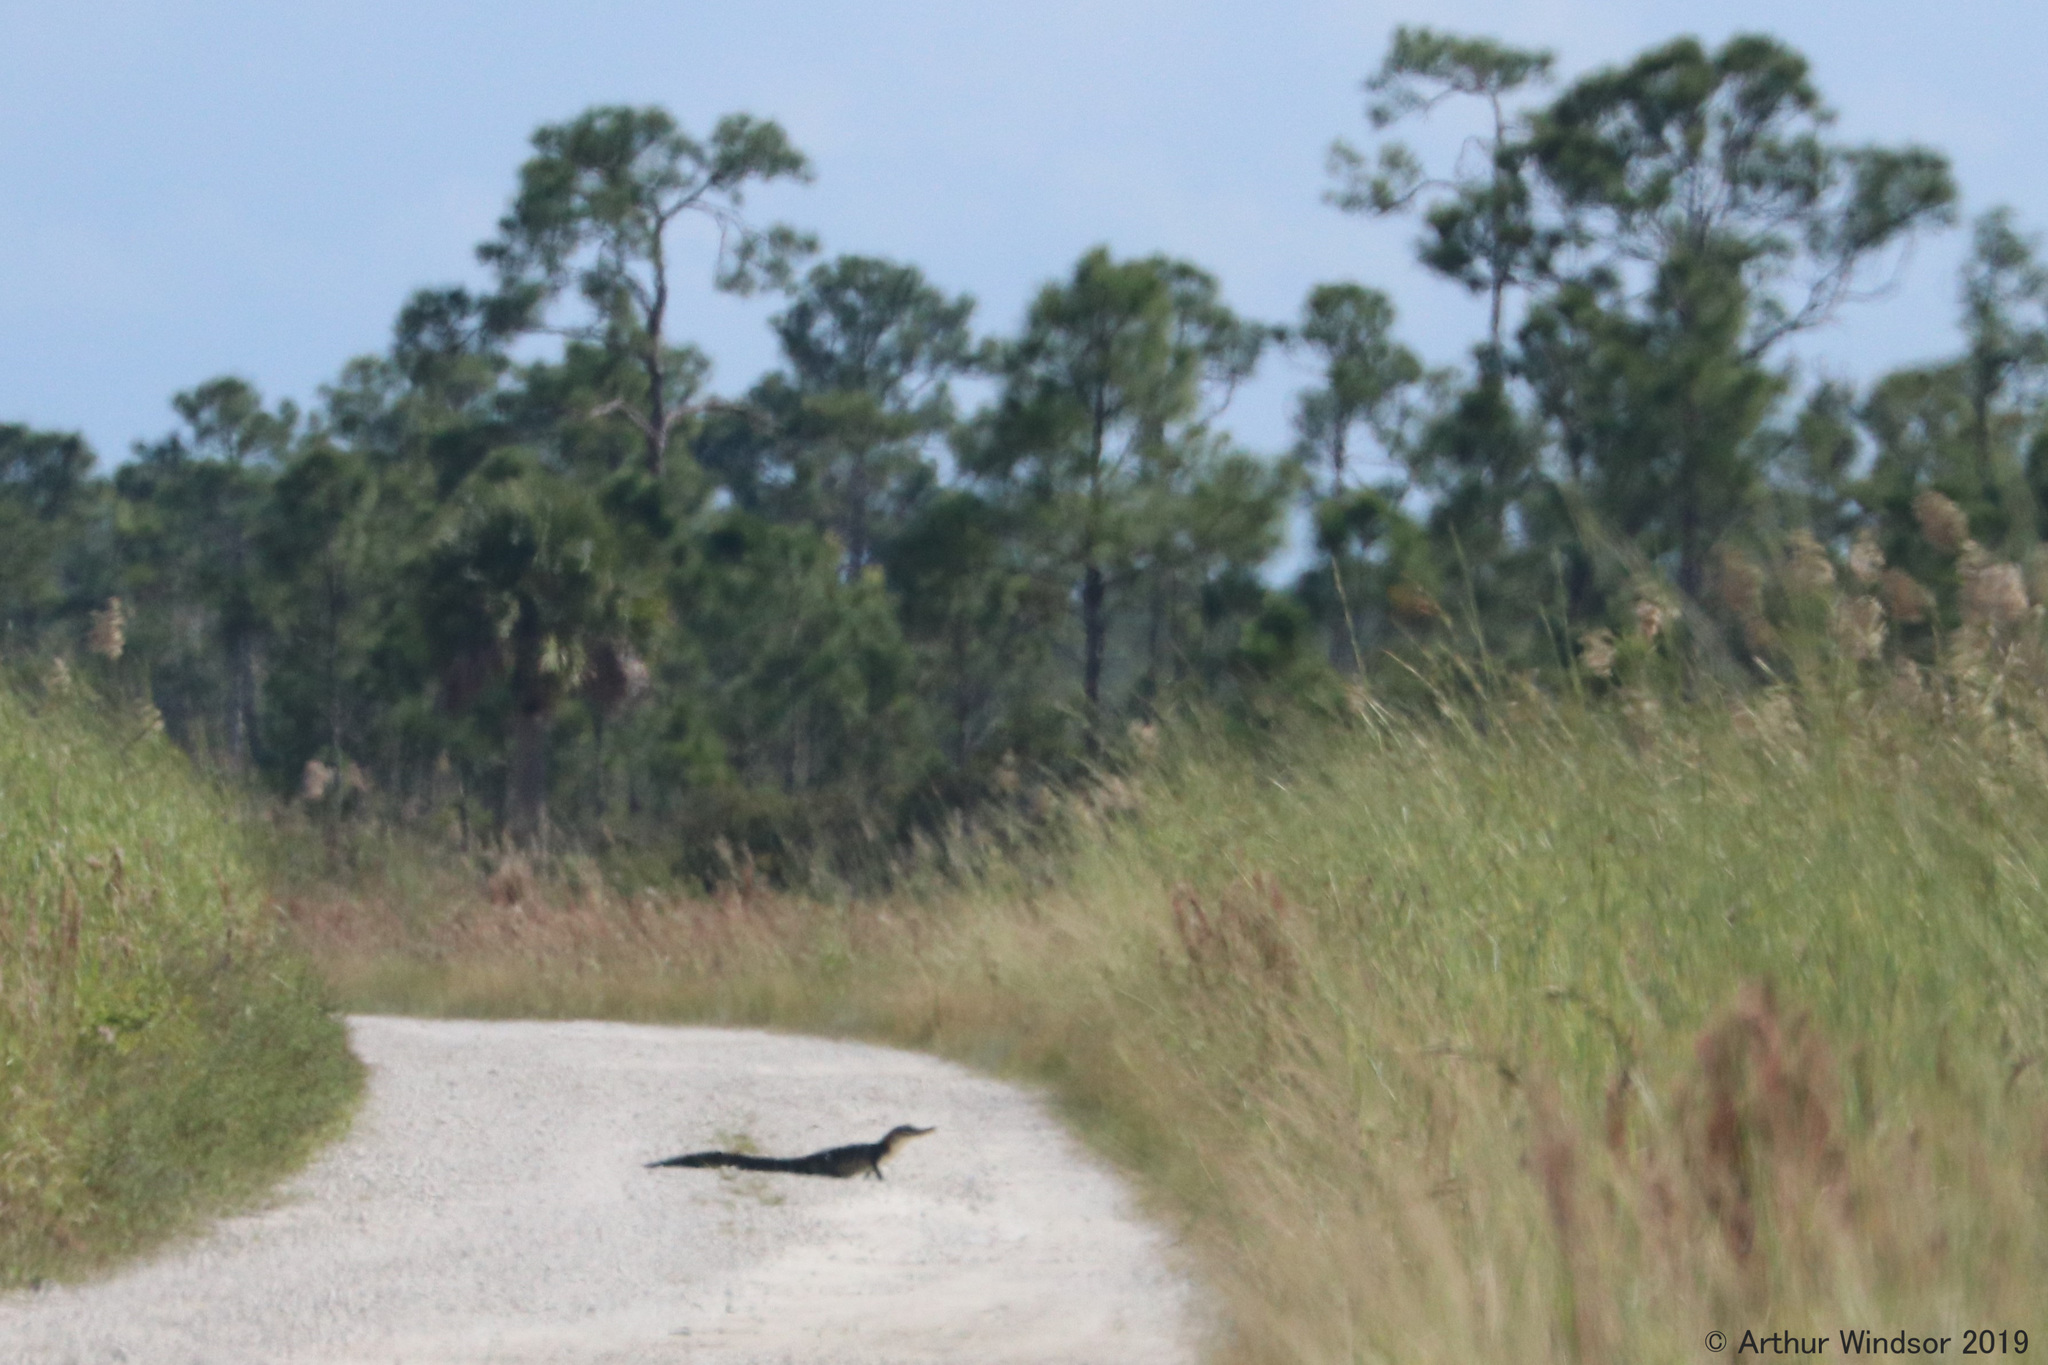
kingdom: Animalia
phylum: Chordata
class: Crocodylia
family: Alligatoridae
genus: Alligator
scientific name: Alligator mississippiensis
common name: American alligator
